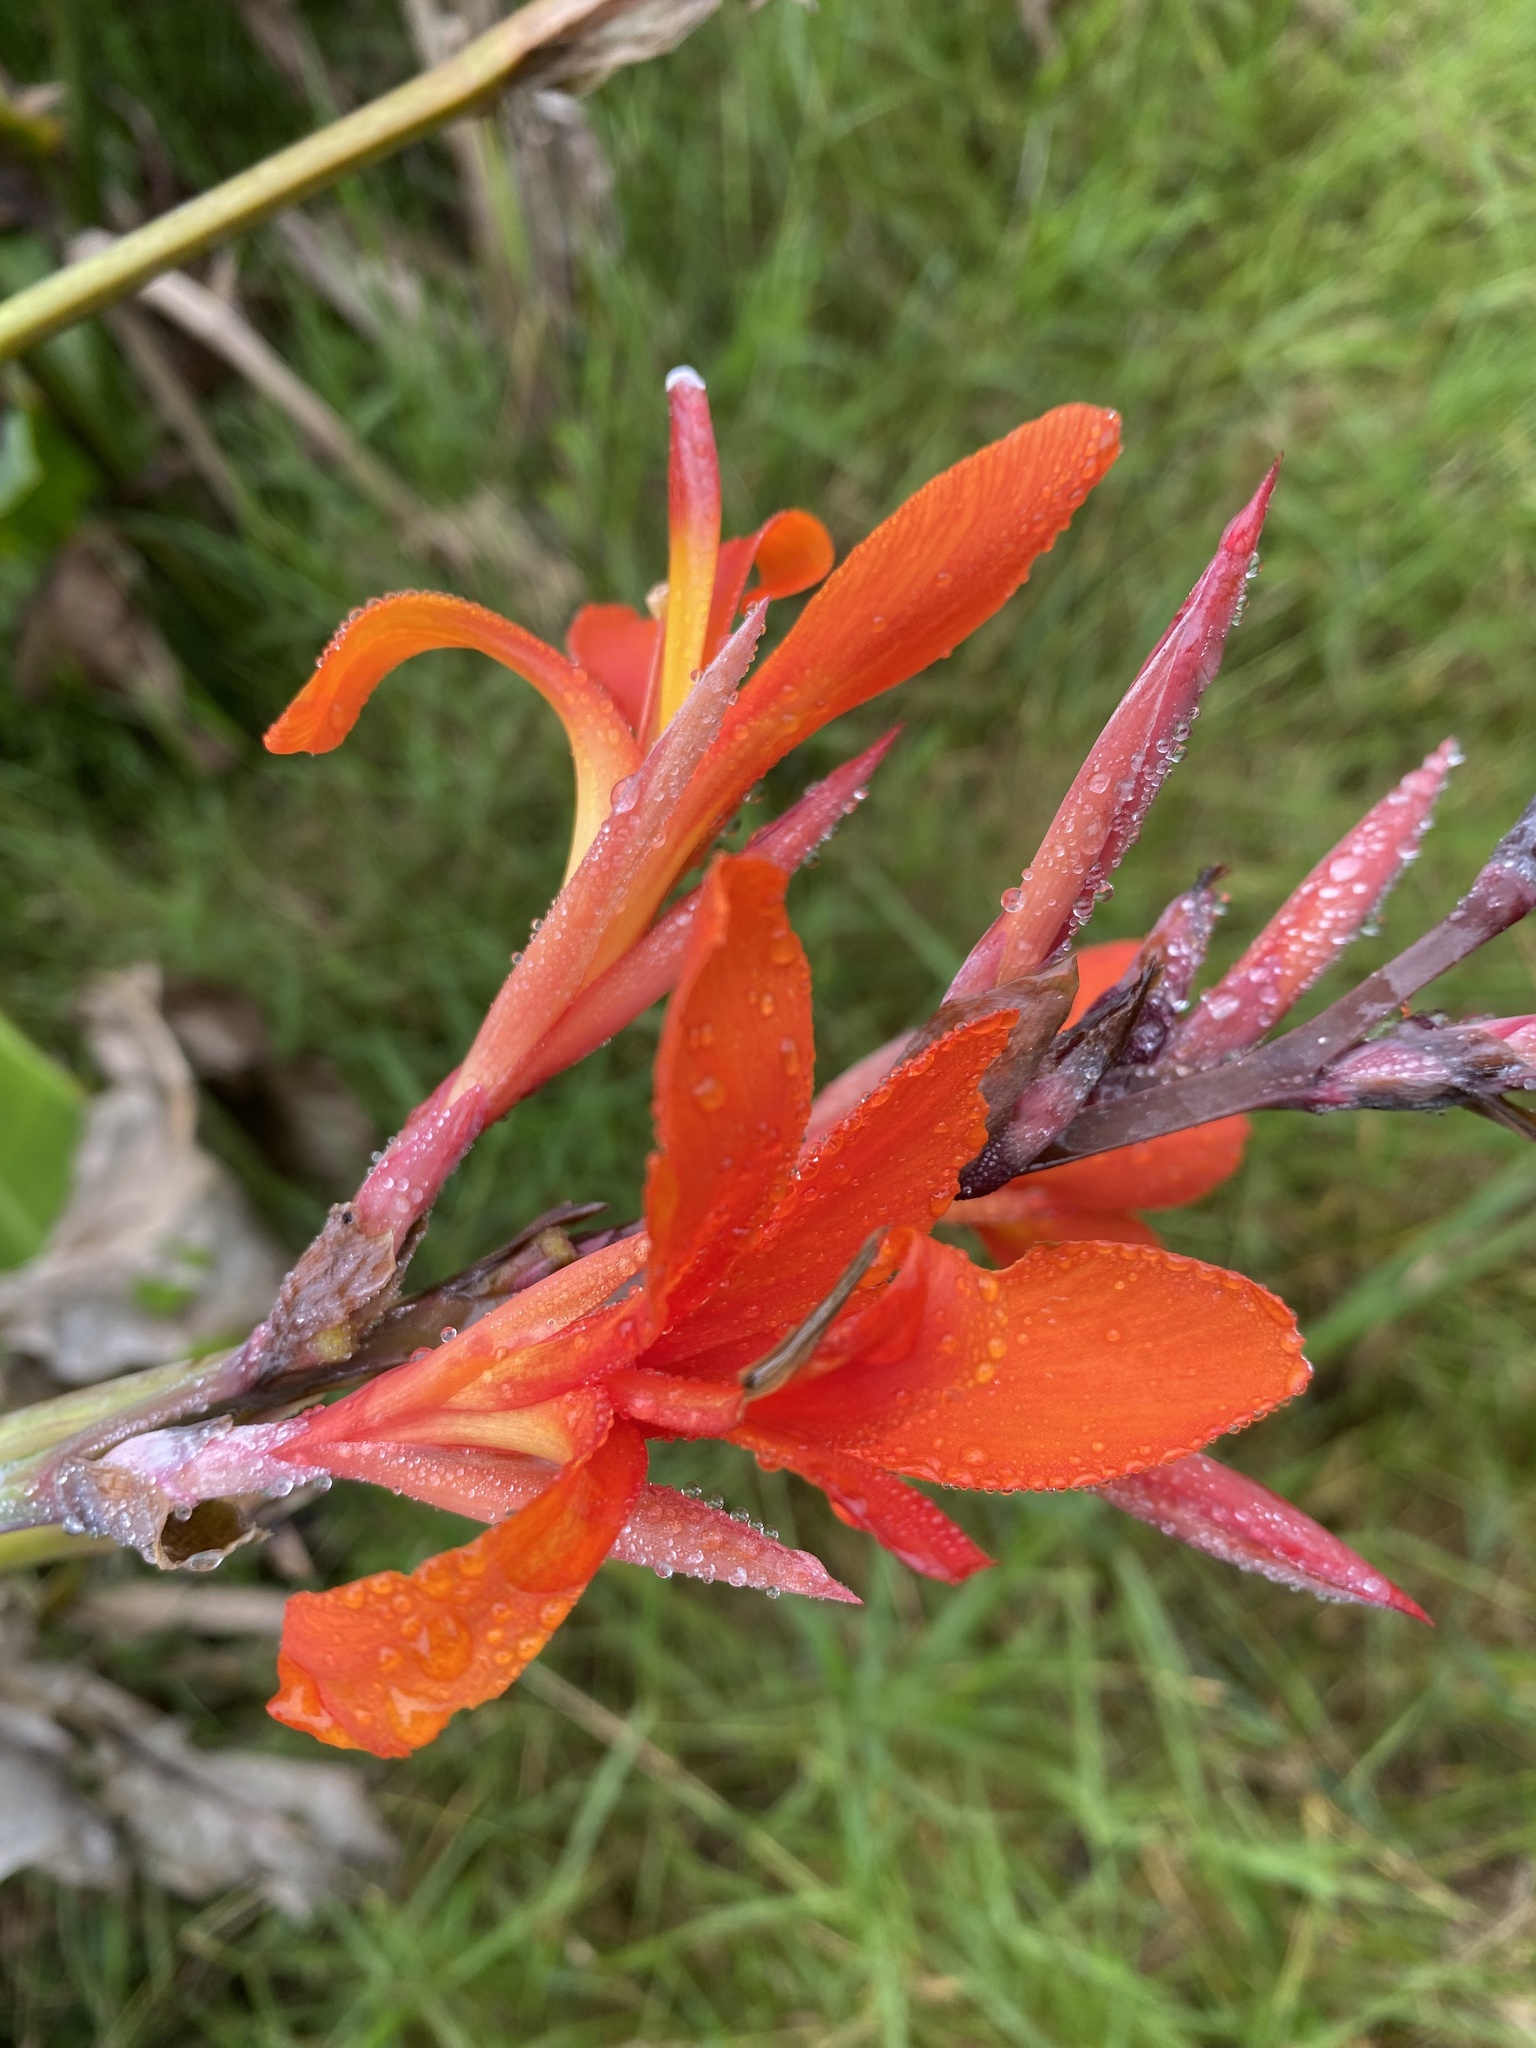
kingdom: Plantae
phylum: Tracheophyta
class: Liliopsida
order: Zingiberales
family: Cannaceae
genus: Canna
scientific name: Canna indica
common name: Indian shot
